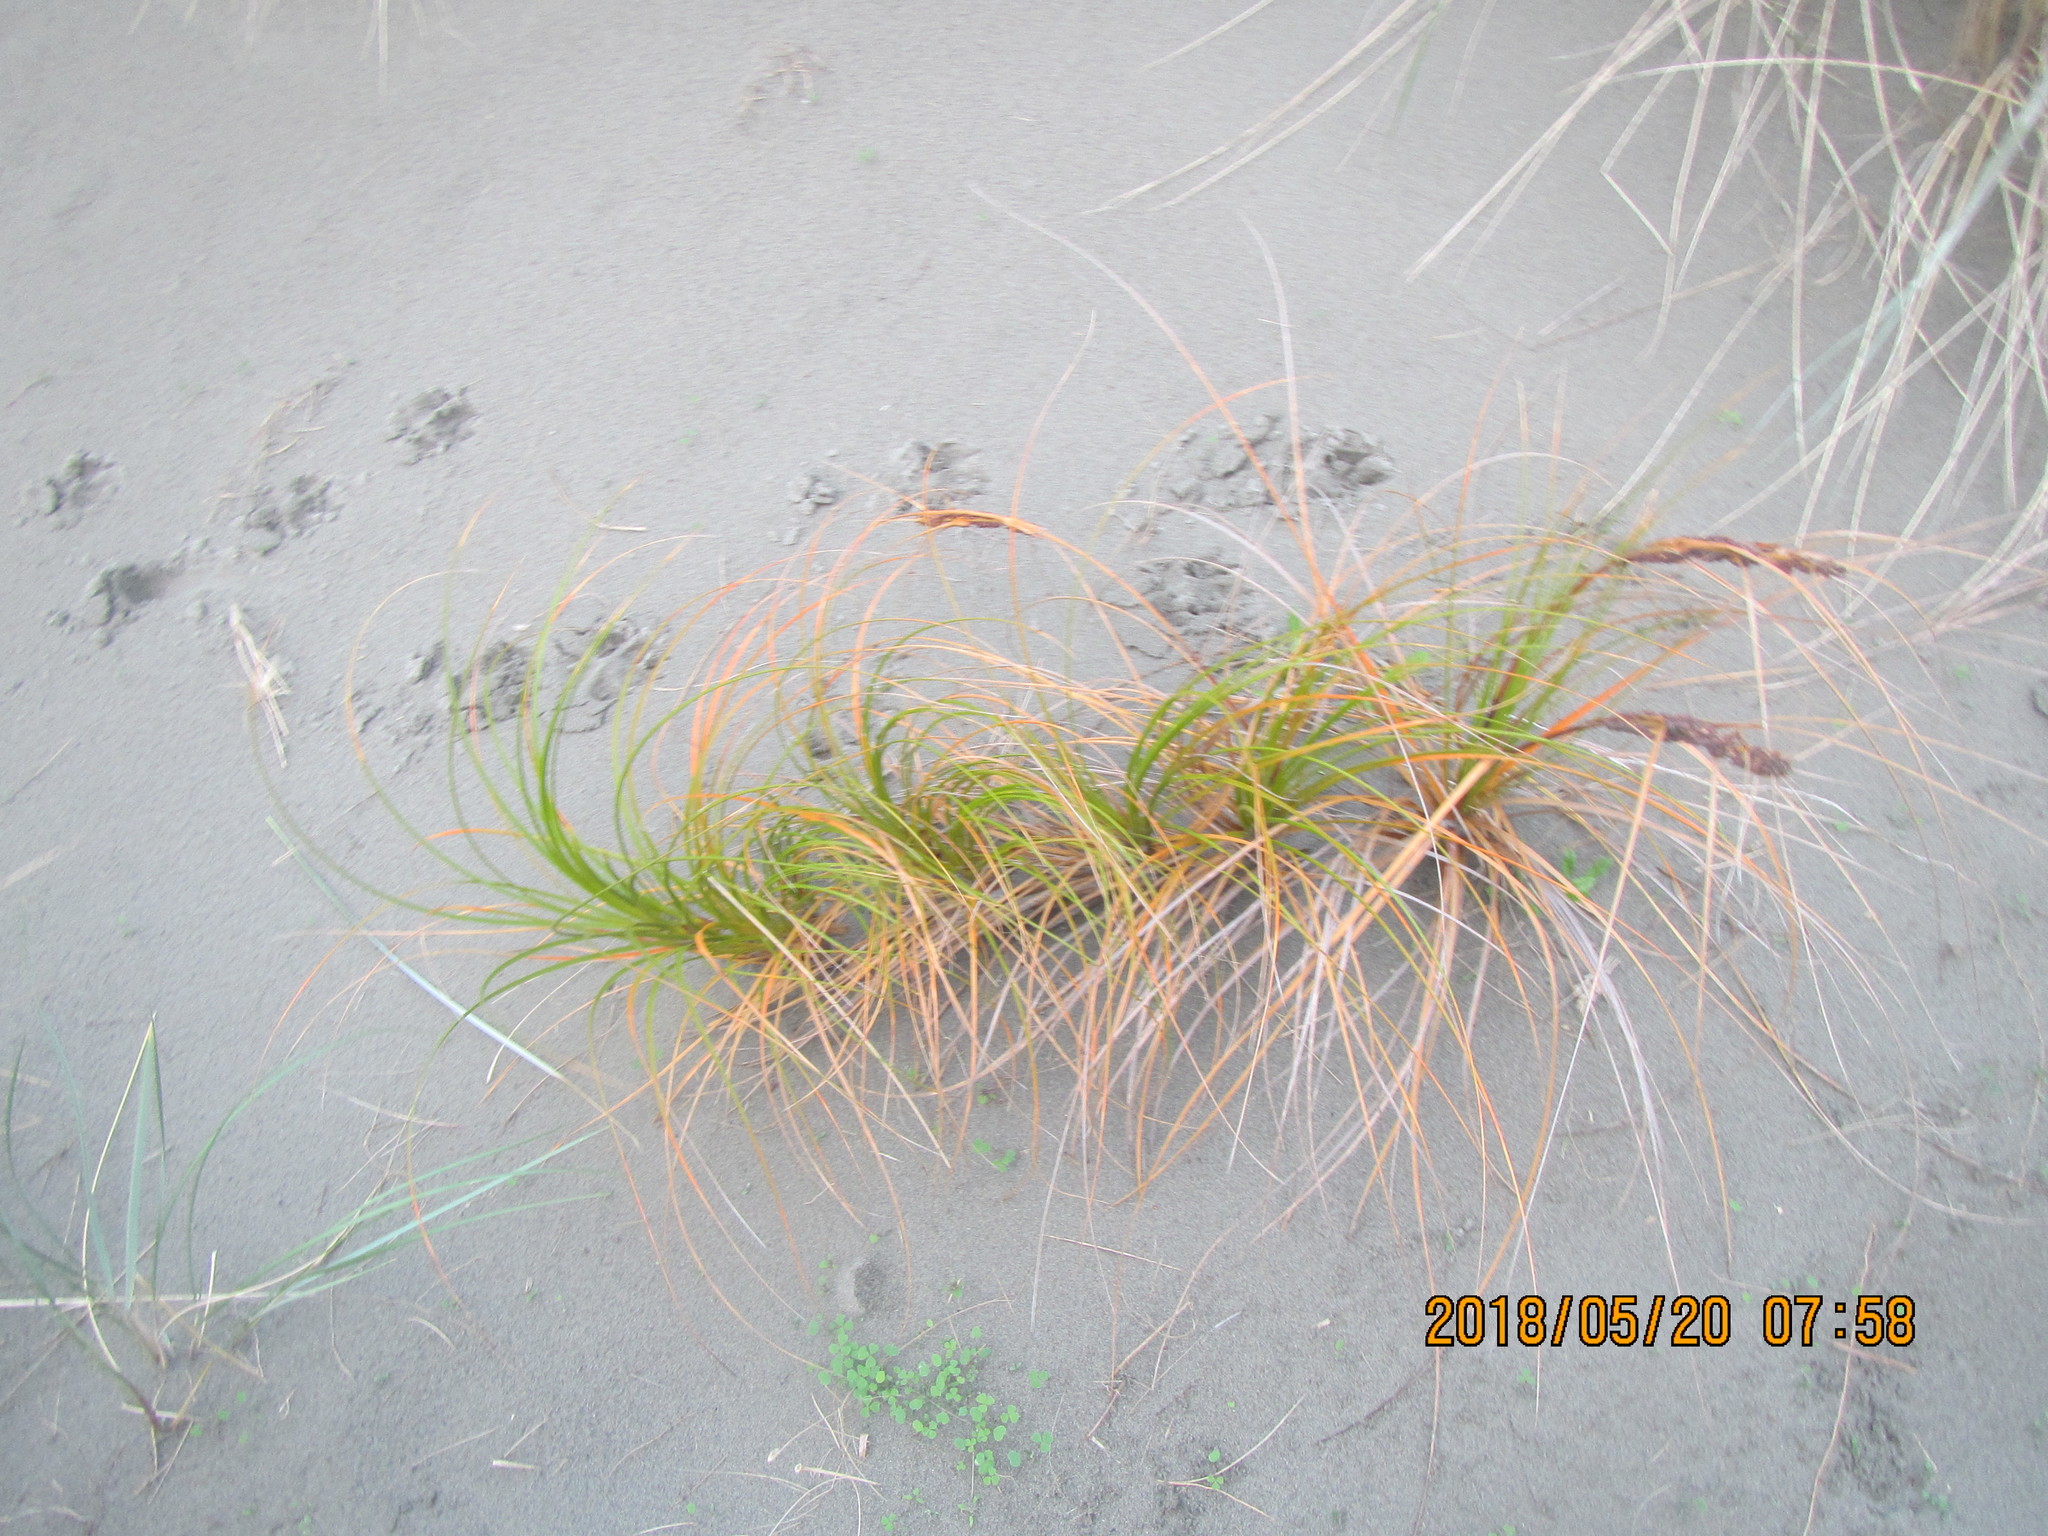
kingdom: Plantae
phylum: Tracheophyta
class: Liliopsida
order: Poales
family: Cyperaceae
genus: Ficinia
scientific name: Ficinia spiralis
